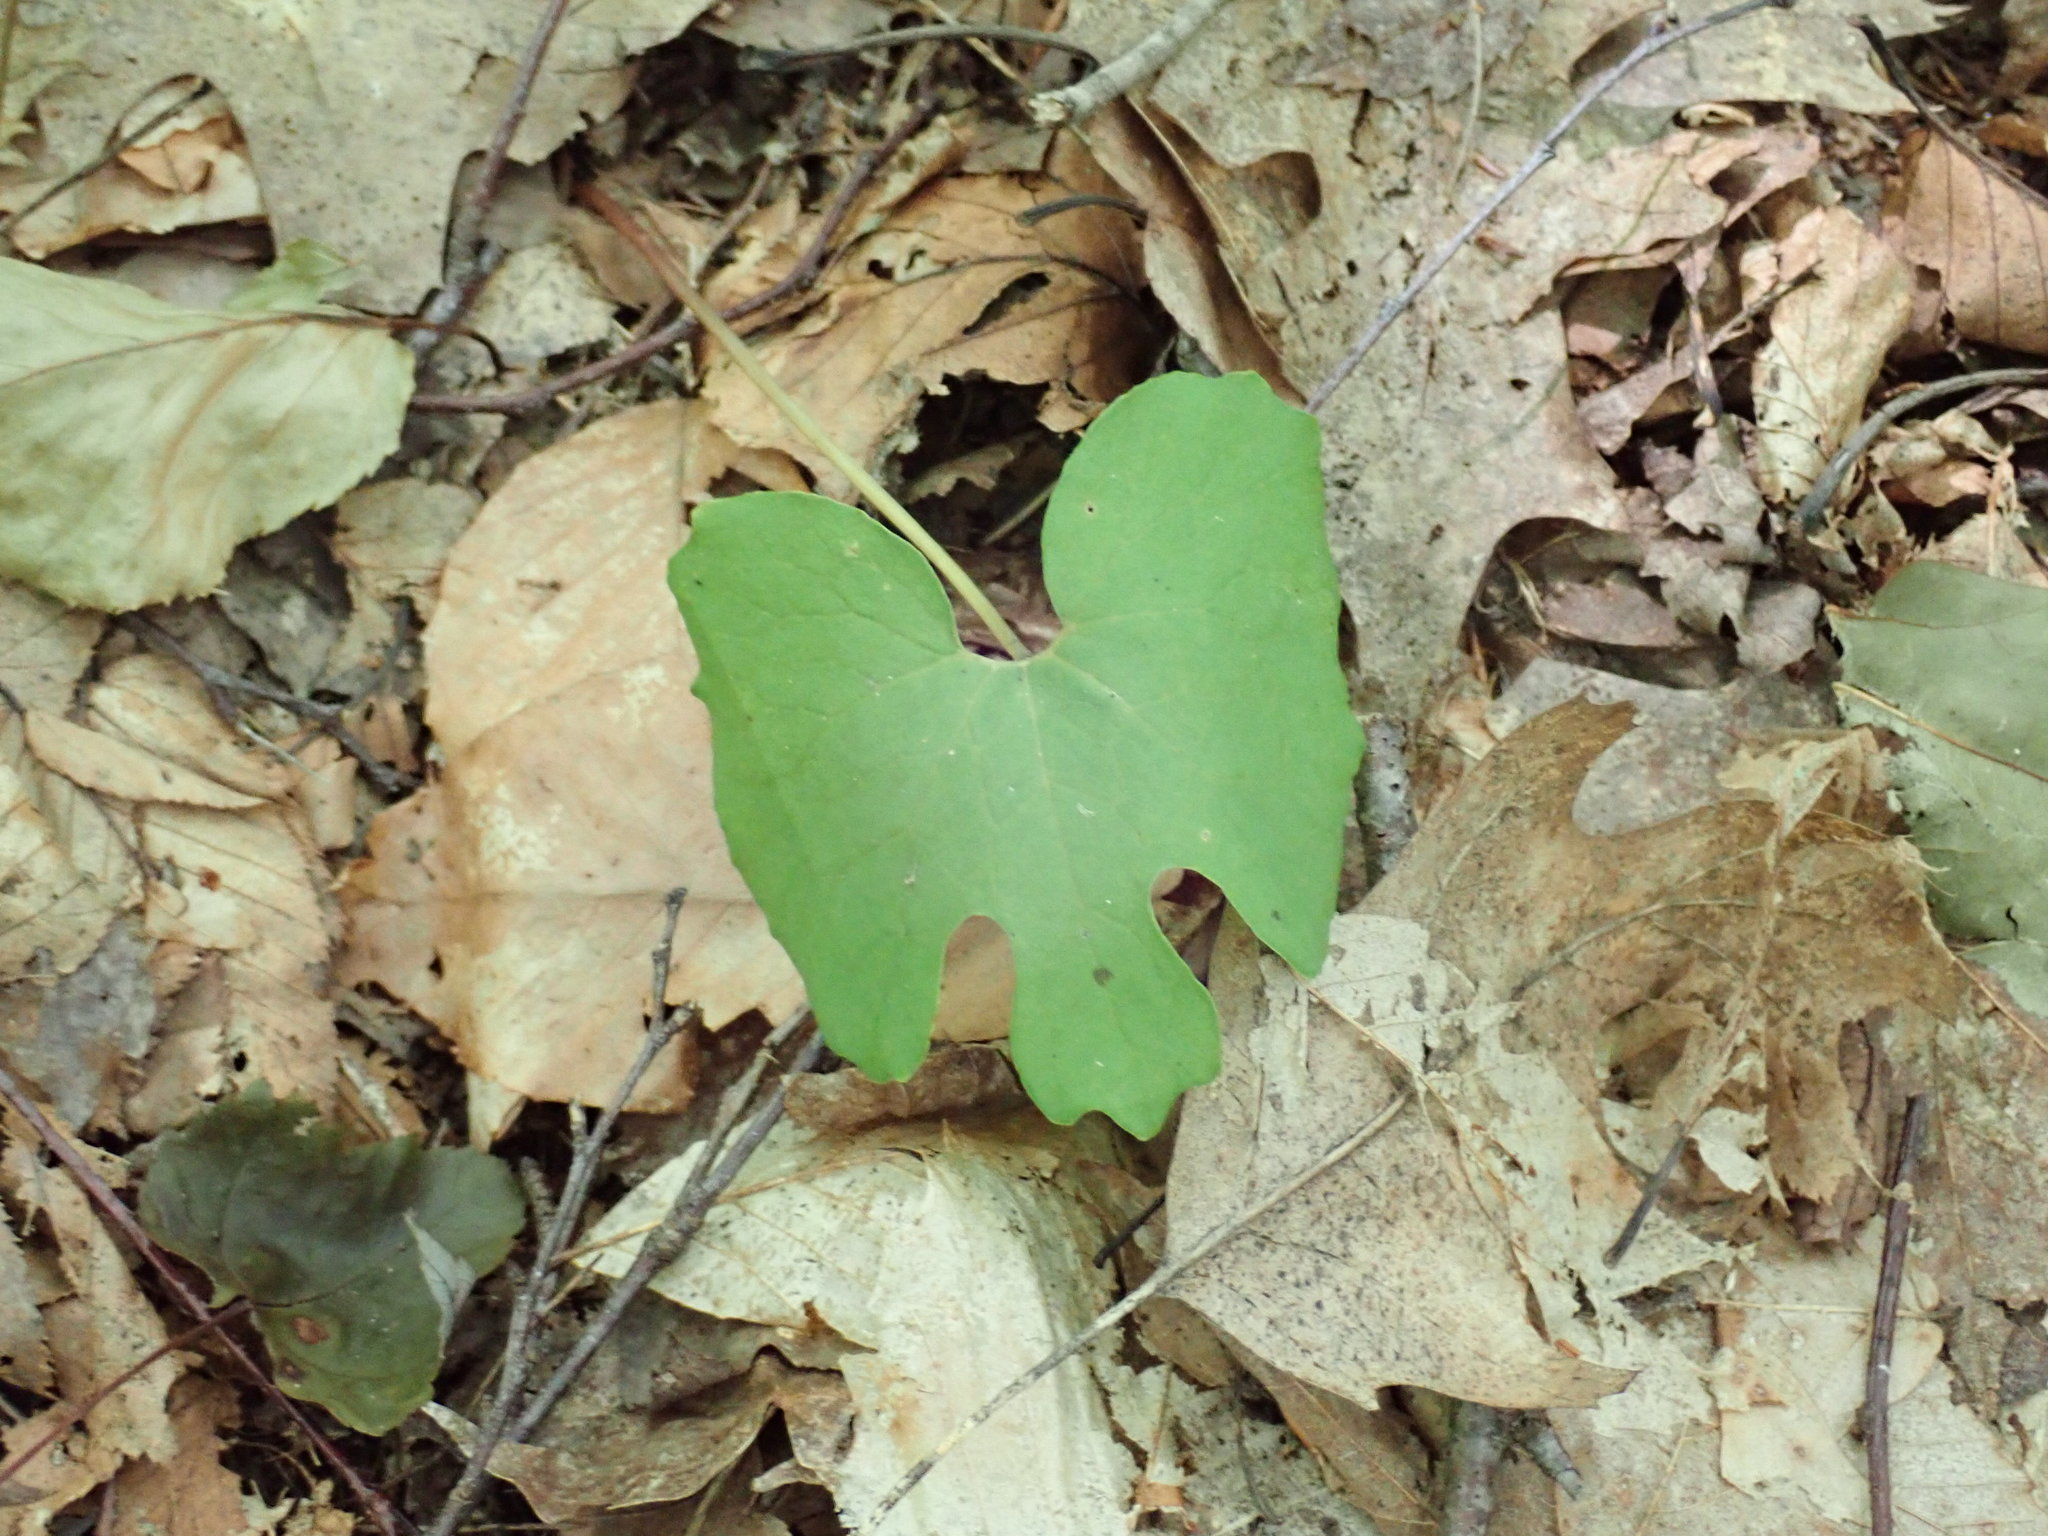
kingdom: Plantae
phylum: Tracheophyta
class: Magnoliopsida
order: Ranunculales
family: Papaveraceae
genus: Sanguinaria
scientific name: Sanguinaria canadensis
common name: Bloodroot
